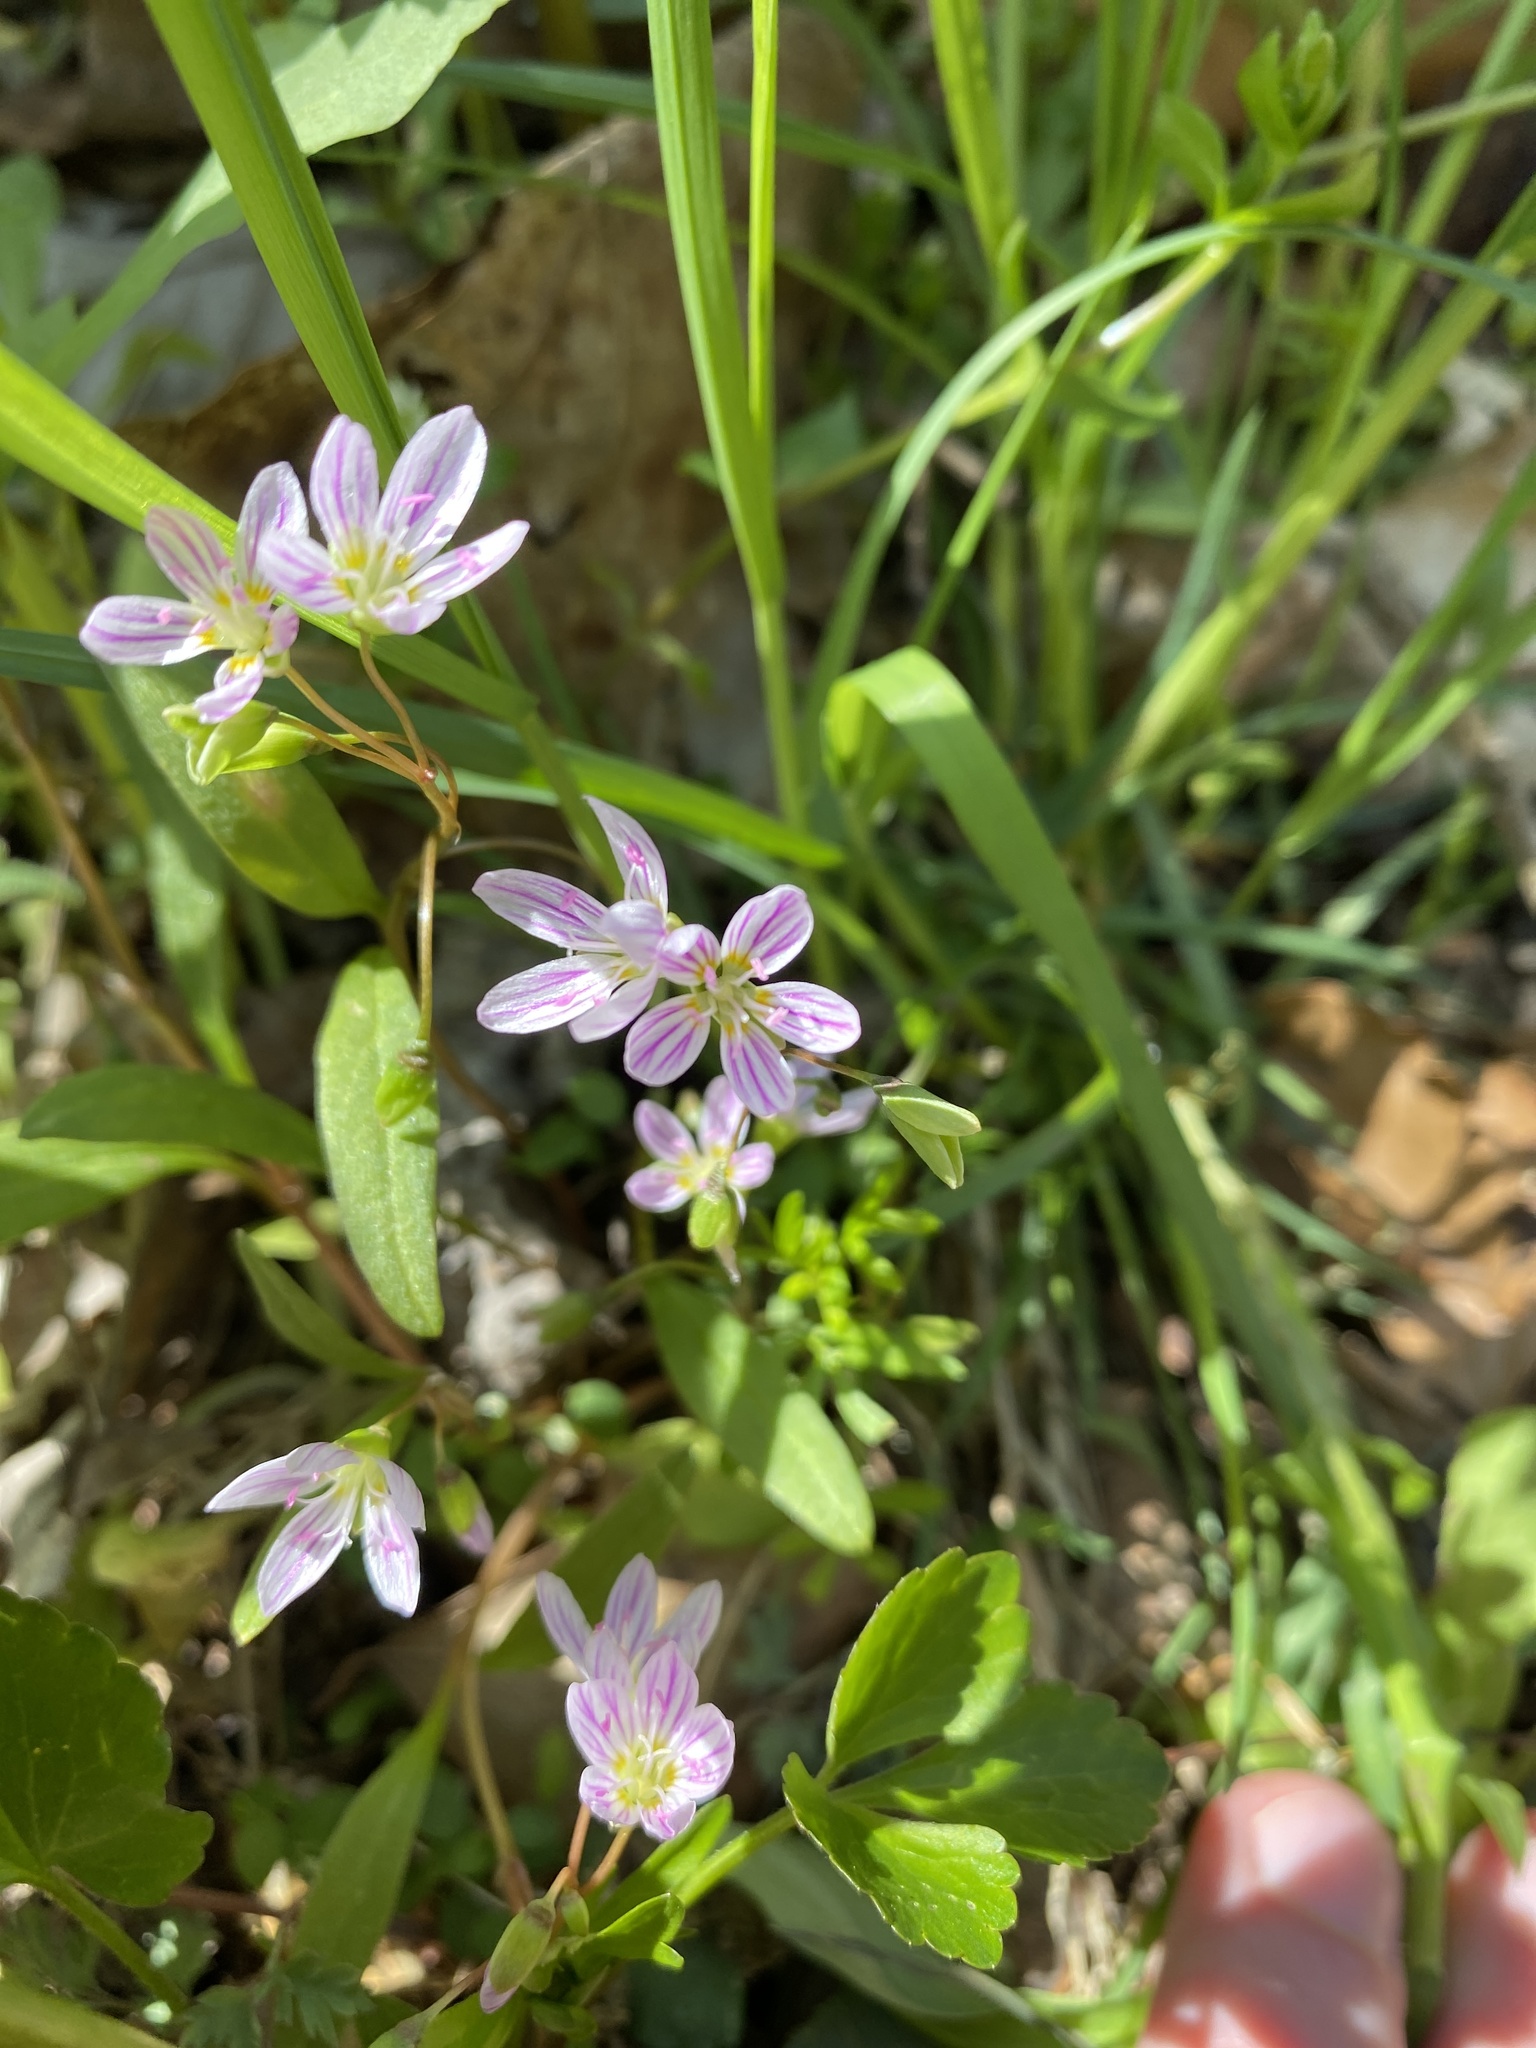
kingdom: Plantae
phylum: Tracheophyta
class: Magnoliopsida
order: Caryophyllales
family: Montiaceae
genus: Claytonia
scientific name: Claytonia virginica
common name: Virginia springbeauty
